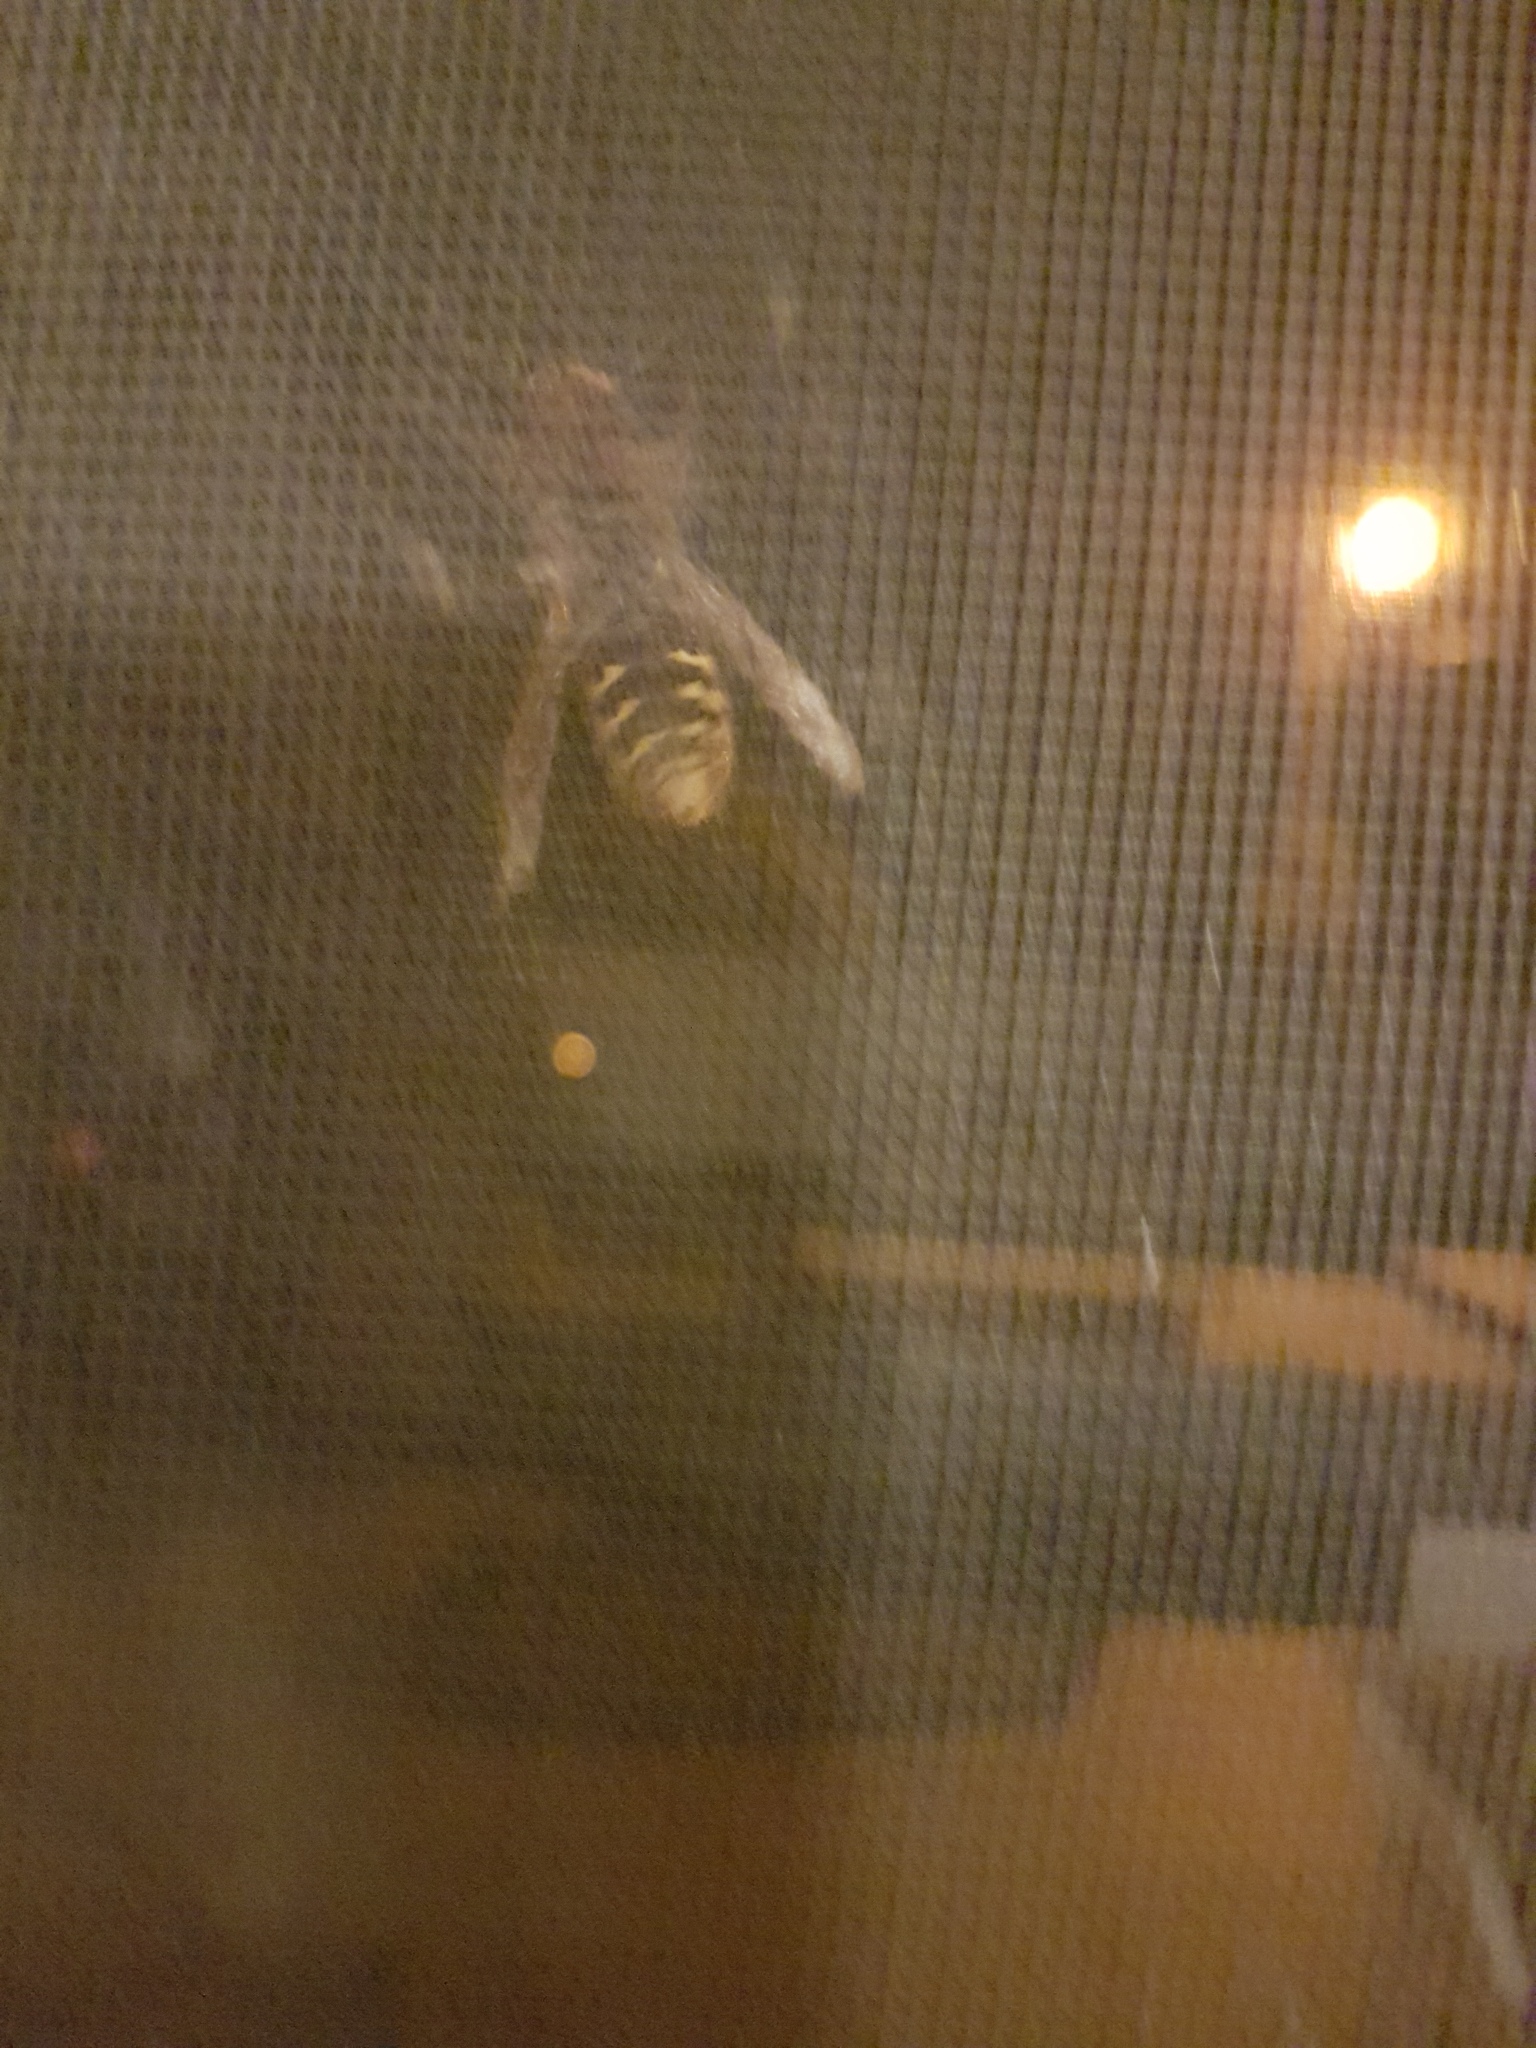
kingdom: Animalia
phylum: Arthropoda
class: Insecta
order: Hymenoptera
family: Vespidae
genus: Vespa
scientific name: Vespa crabro
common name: Hornet
